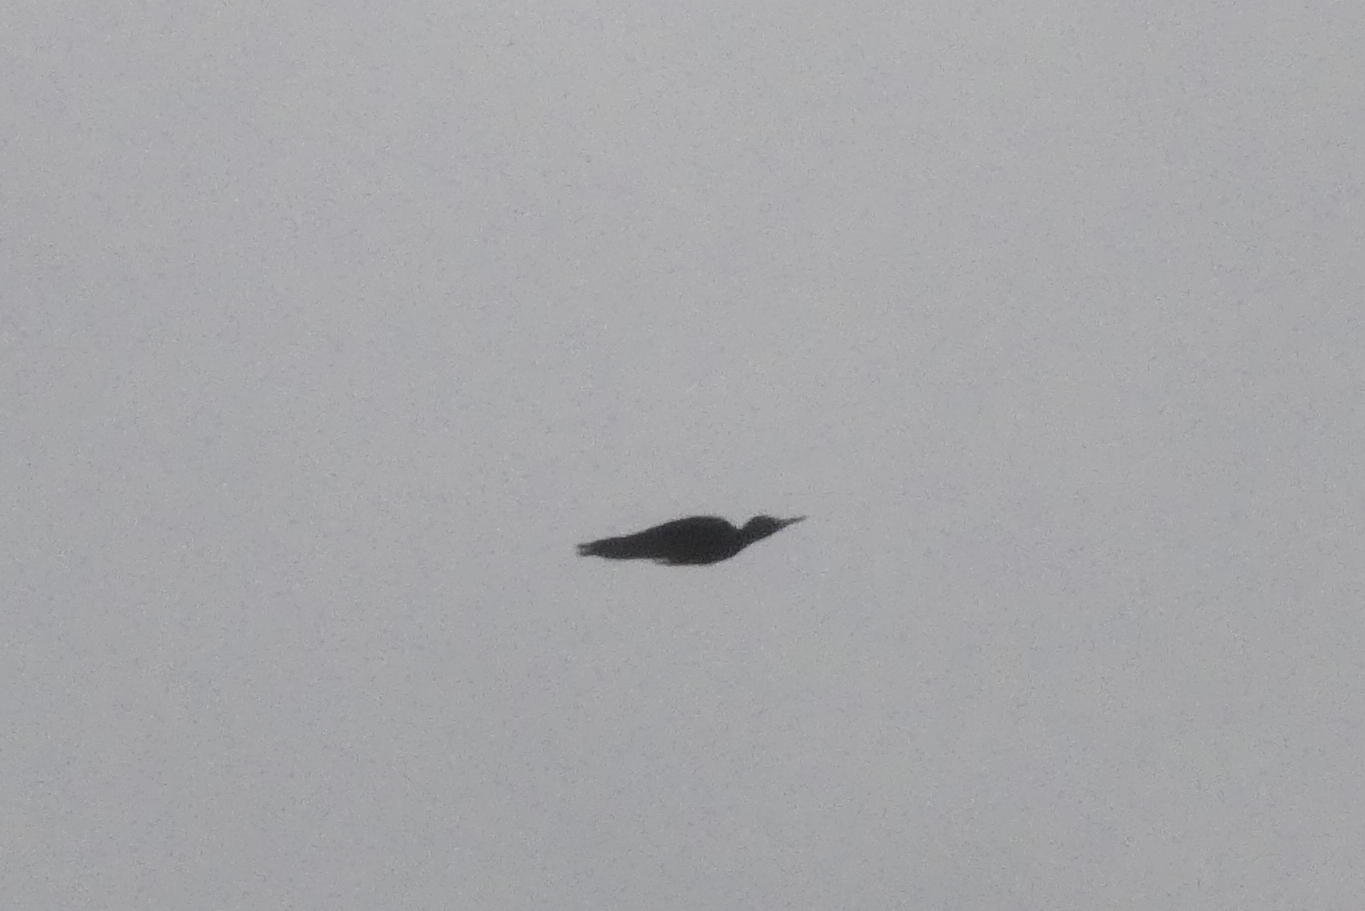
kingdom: Animalia
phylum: Chordata
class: Aves
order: Piciformes
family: Picidae
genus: Dryocopus
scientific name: Dryocopus martius
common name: Black woodpecker
